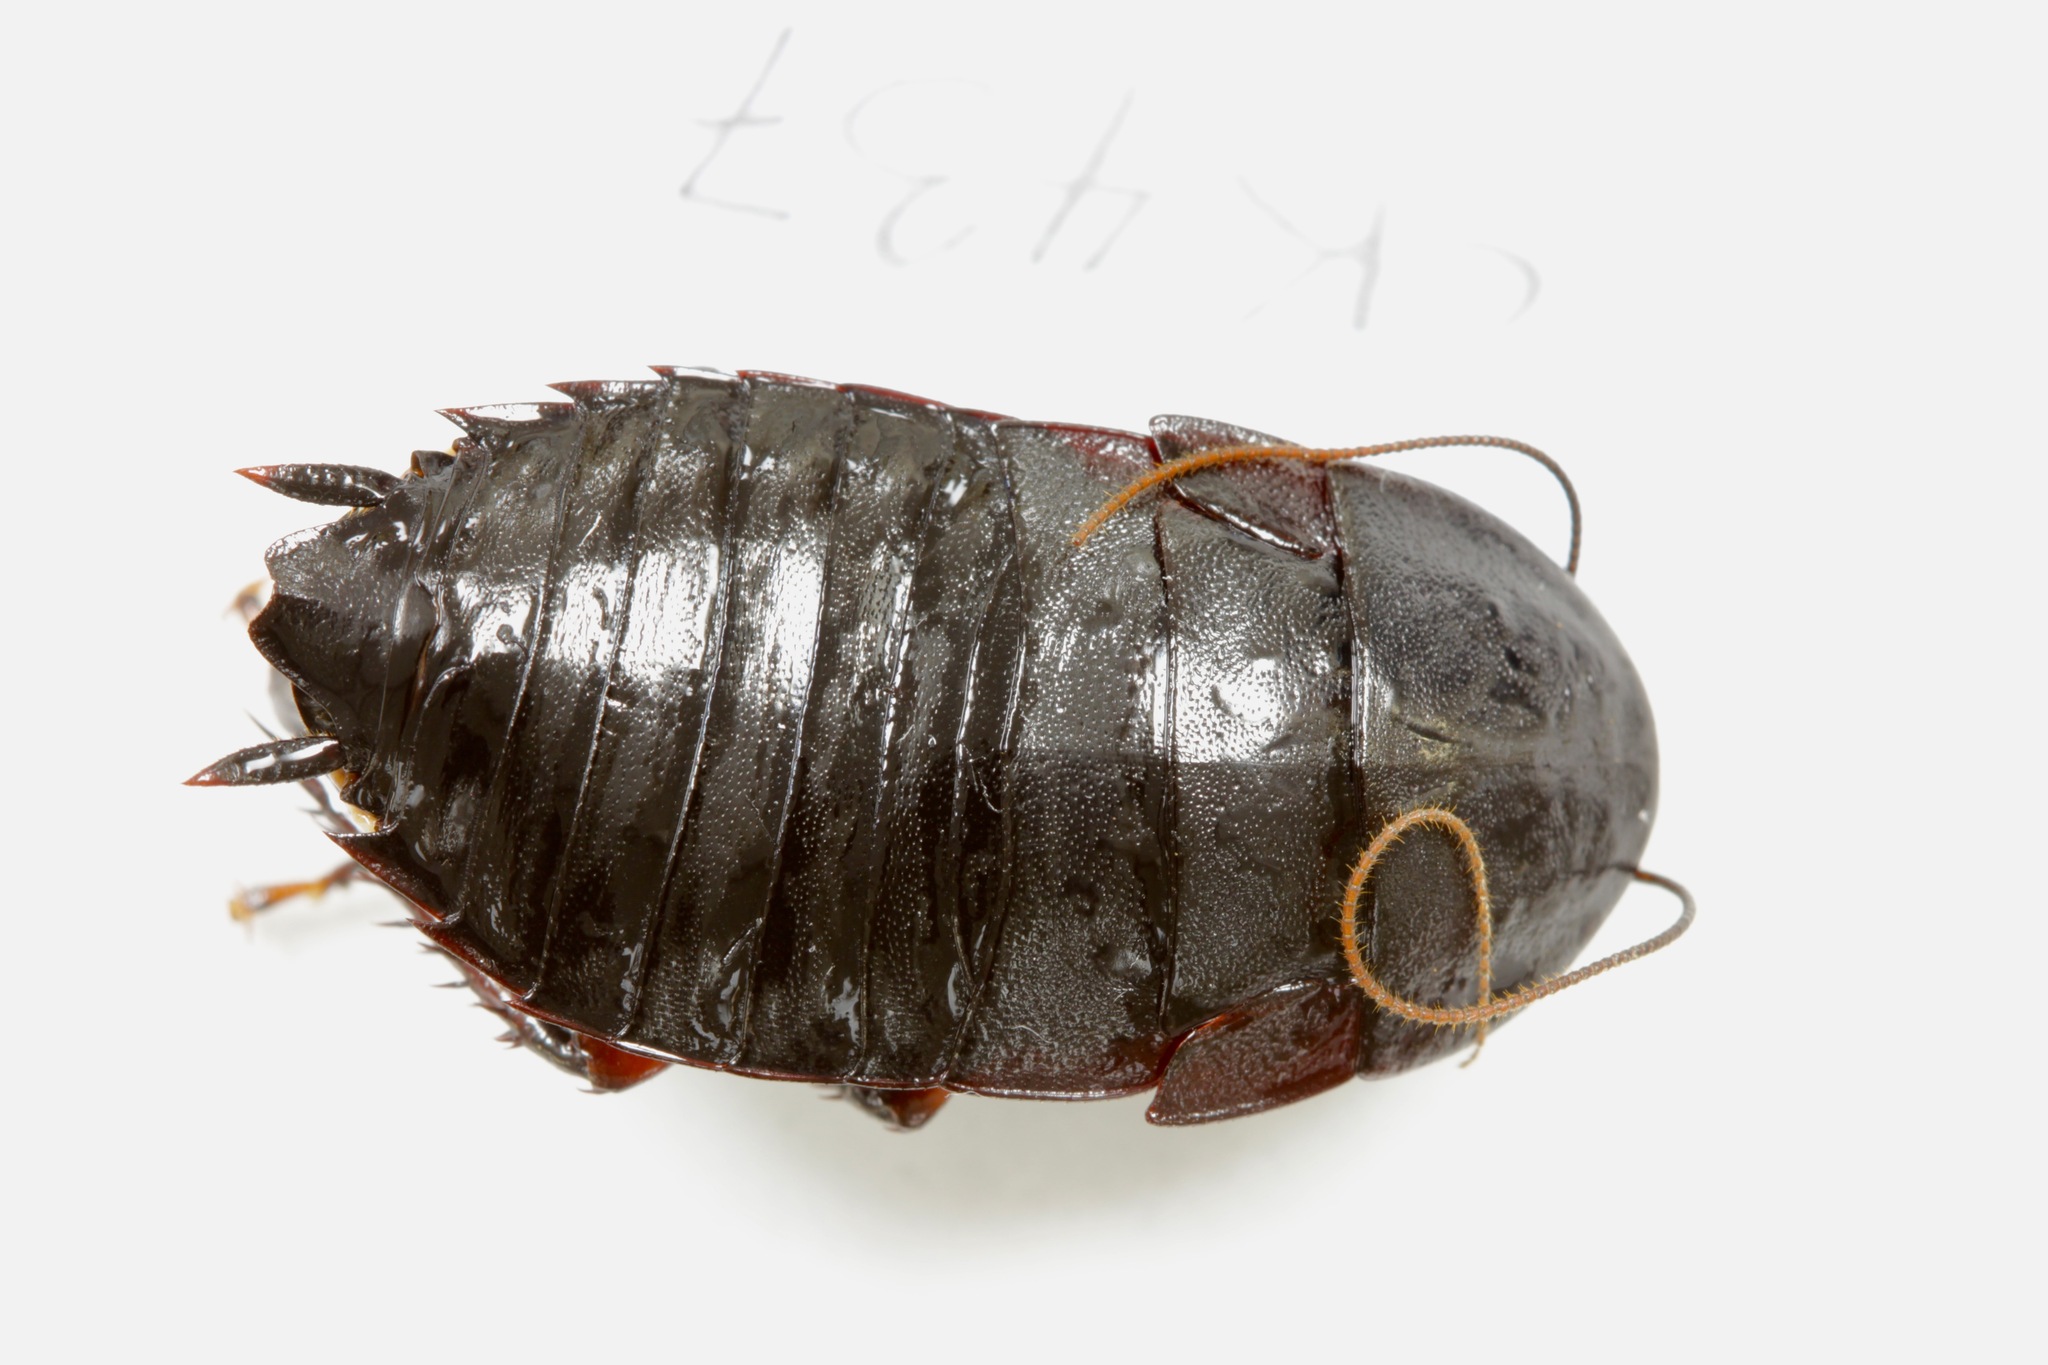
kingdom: Animalia
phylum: Arthropoda
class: Insecta
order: Blattodea
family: Blattidae
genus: Maoriblatta
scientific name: Maoriblatta novaeseelandiae
